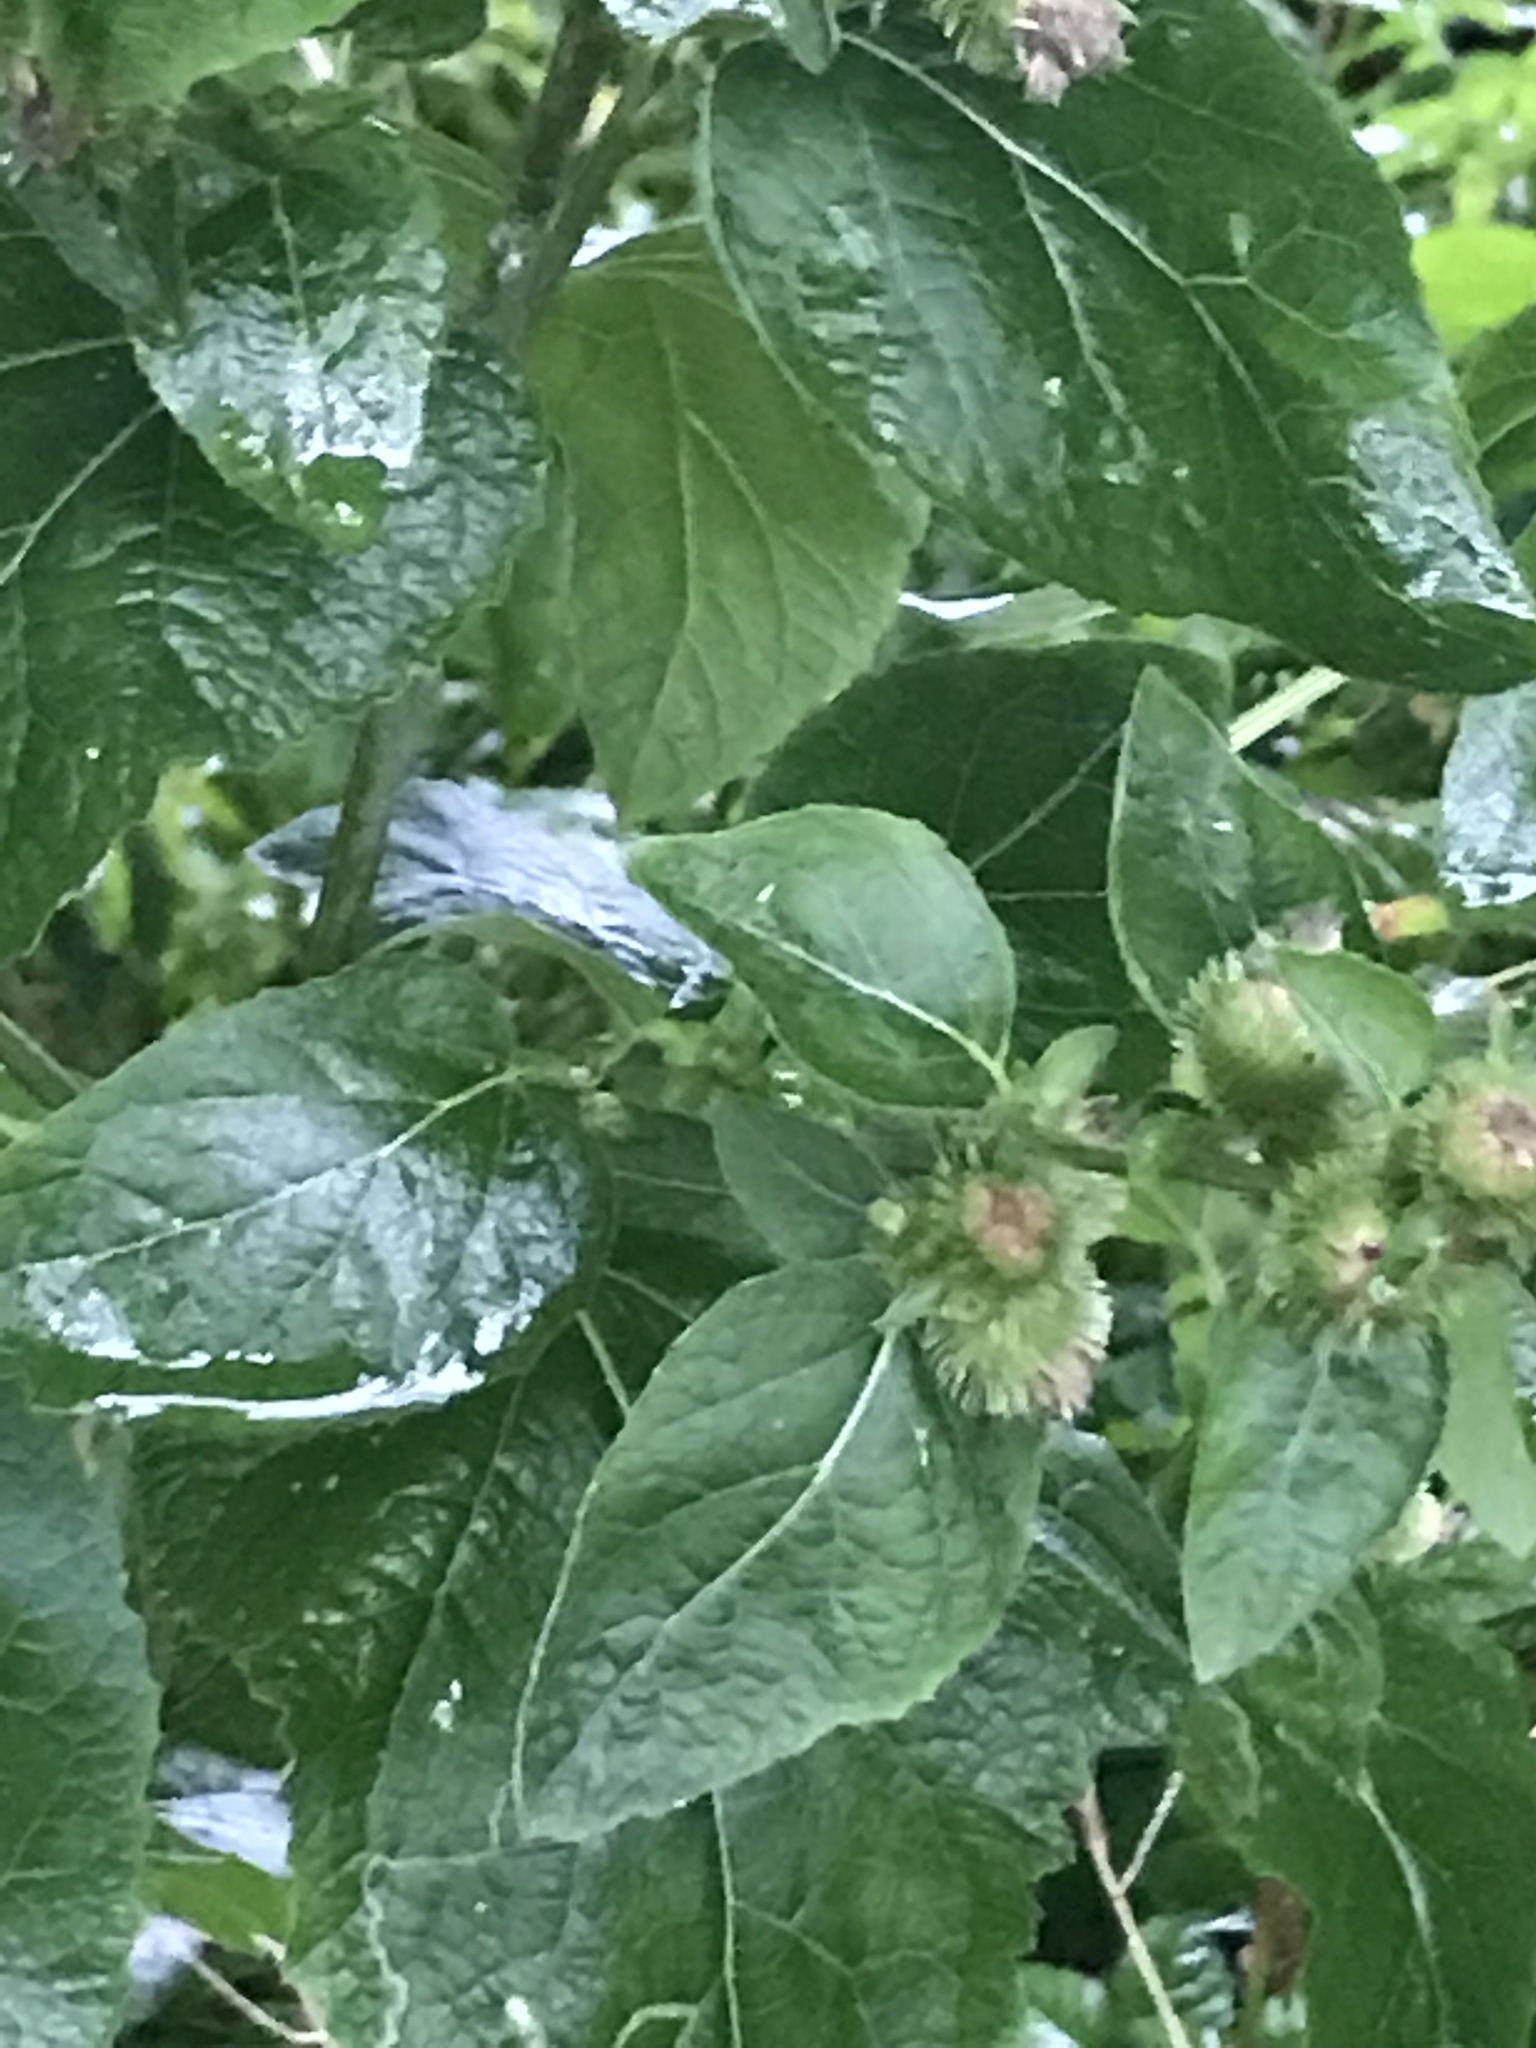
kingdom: Plantae
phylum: Tracheophyta
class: Magnoliopsida
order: Asterales
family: Asteraceae
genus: Arctium
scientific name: Arctium minus
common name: Lesser burdock
